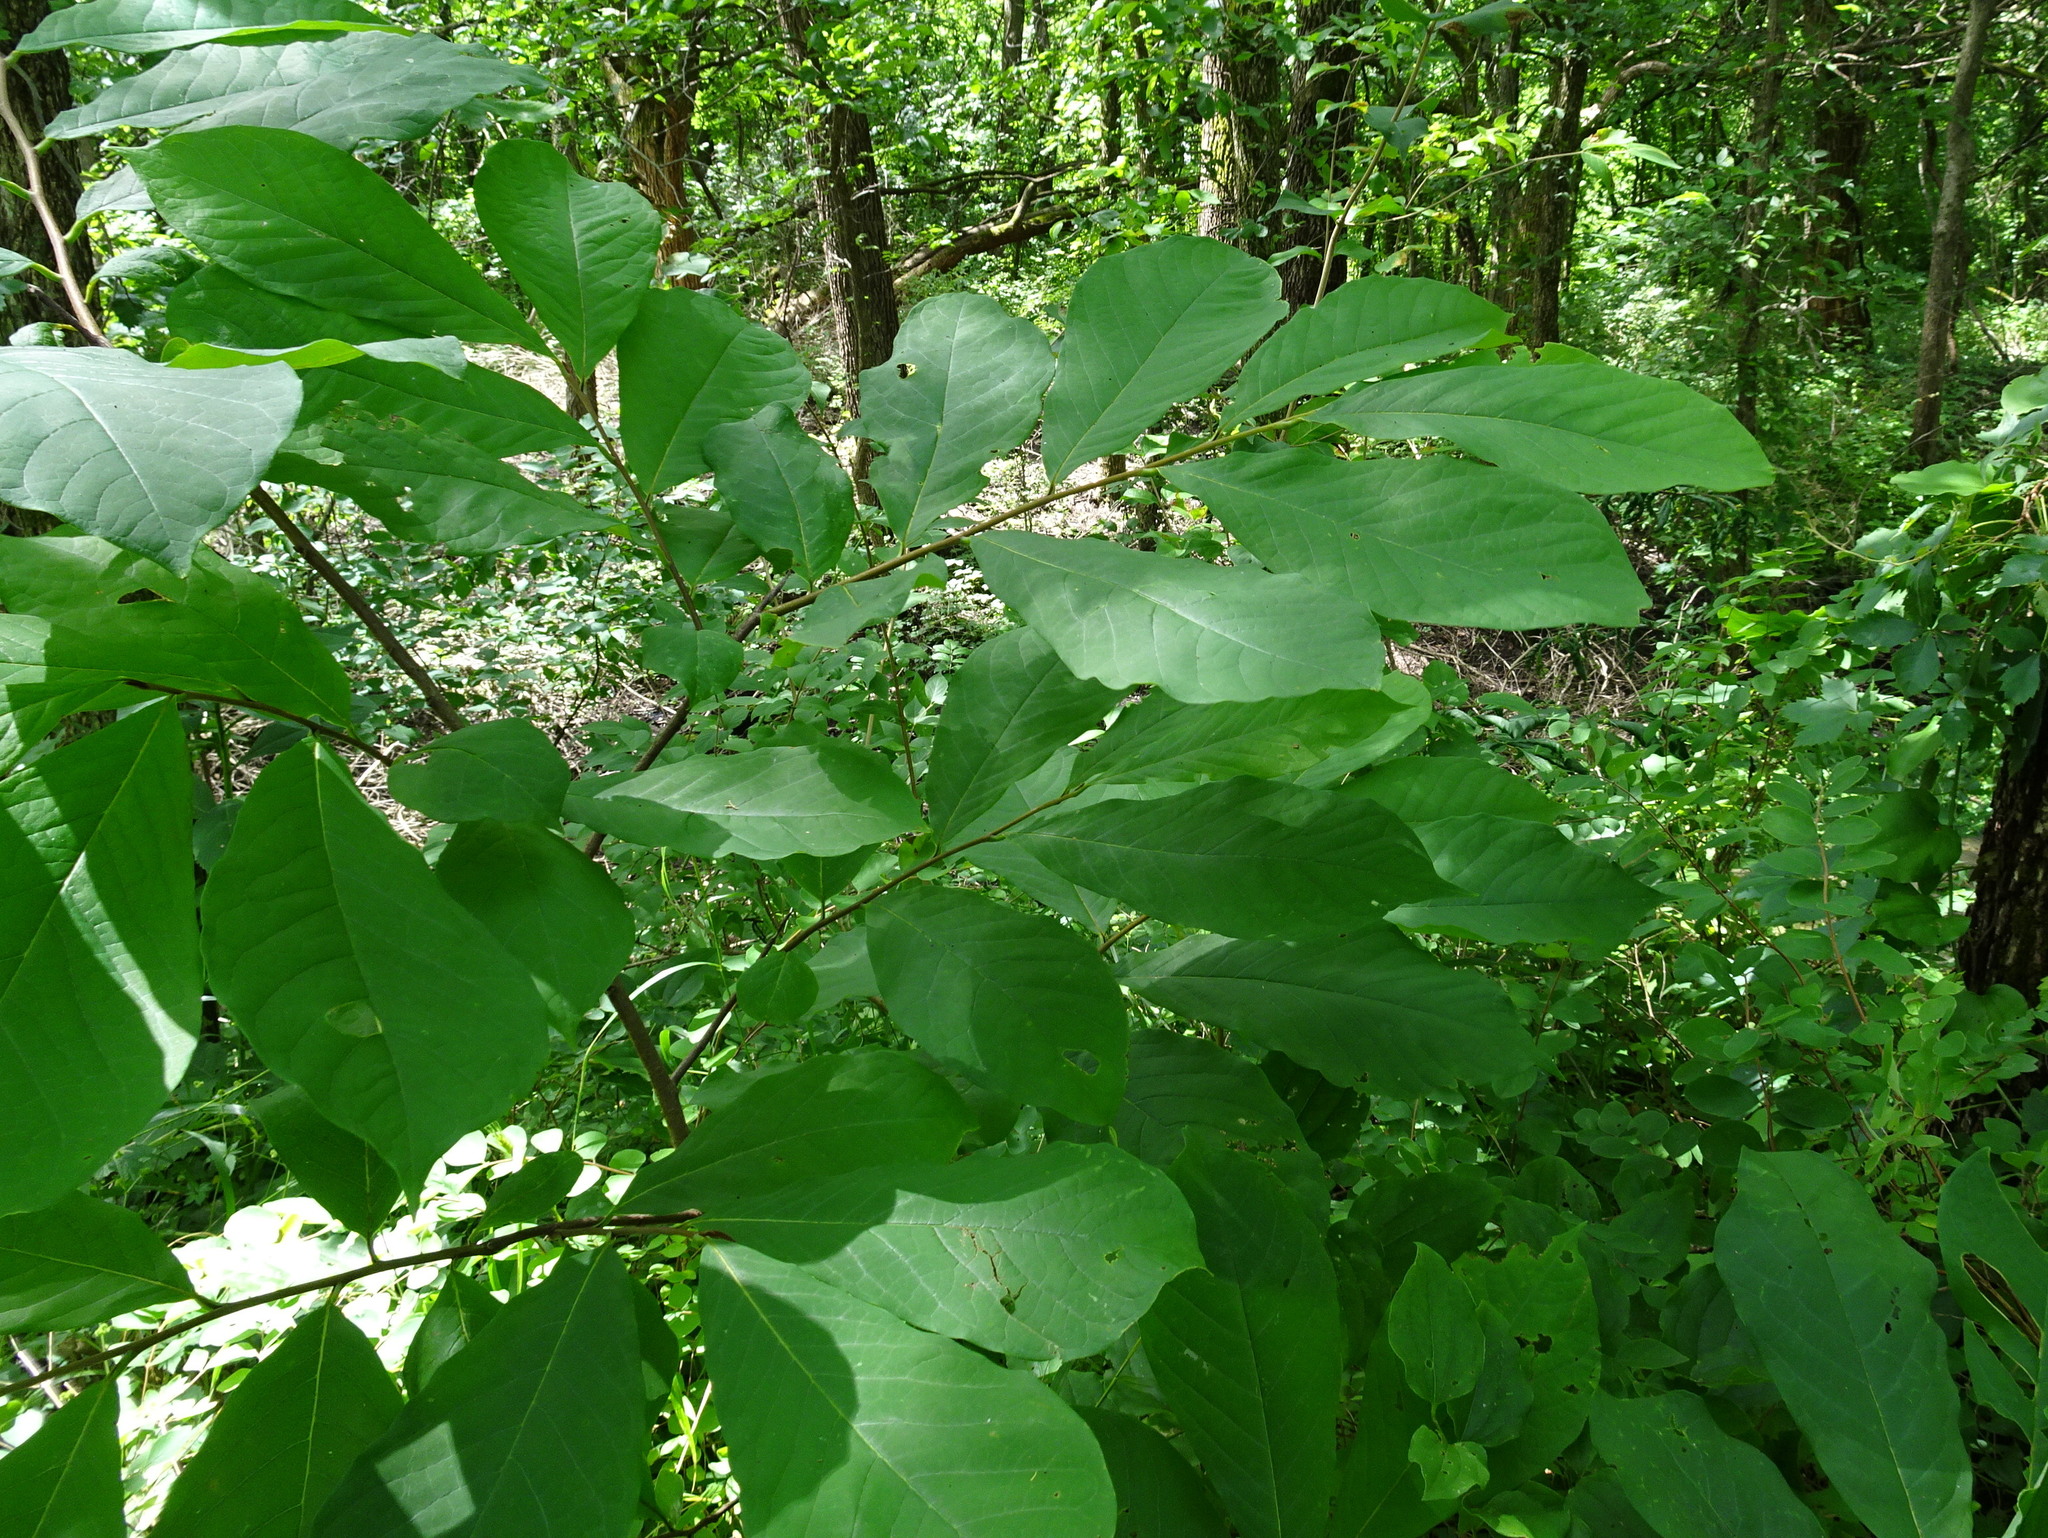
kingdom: Plantae
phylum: Tracheophyta
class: Magnoliopsida
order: Magnoliales
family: Annonaceae
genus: Asimina
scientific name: Asimina triloba
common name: Dog-banana
